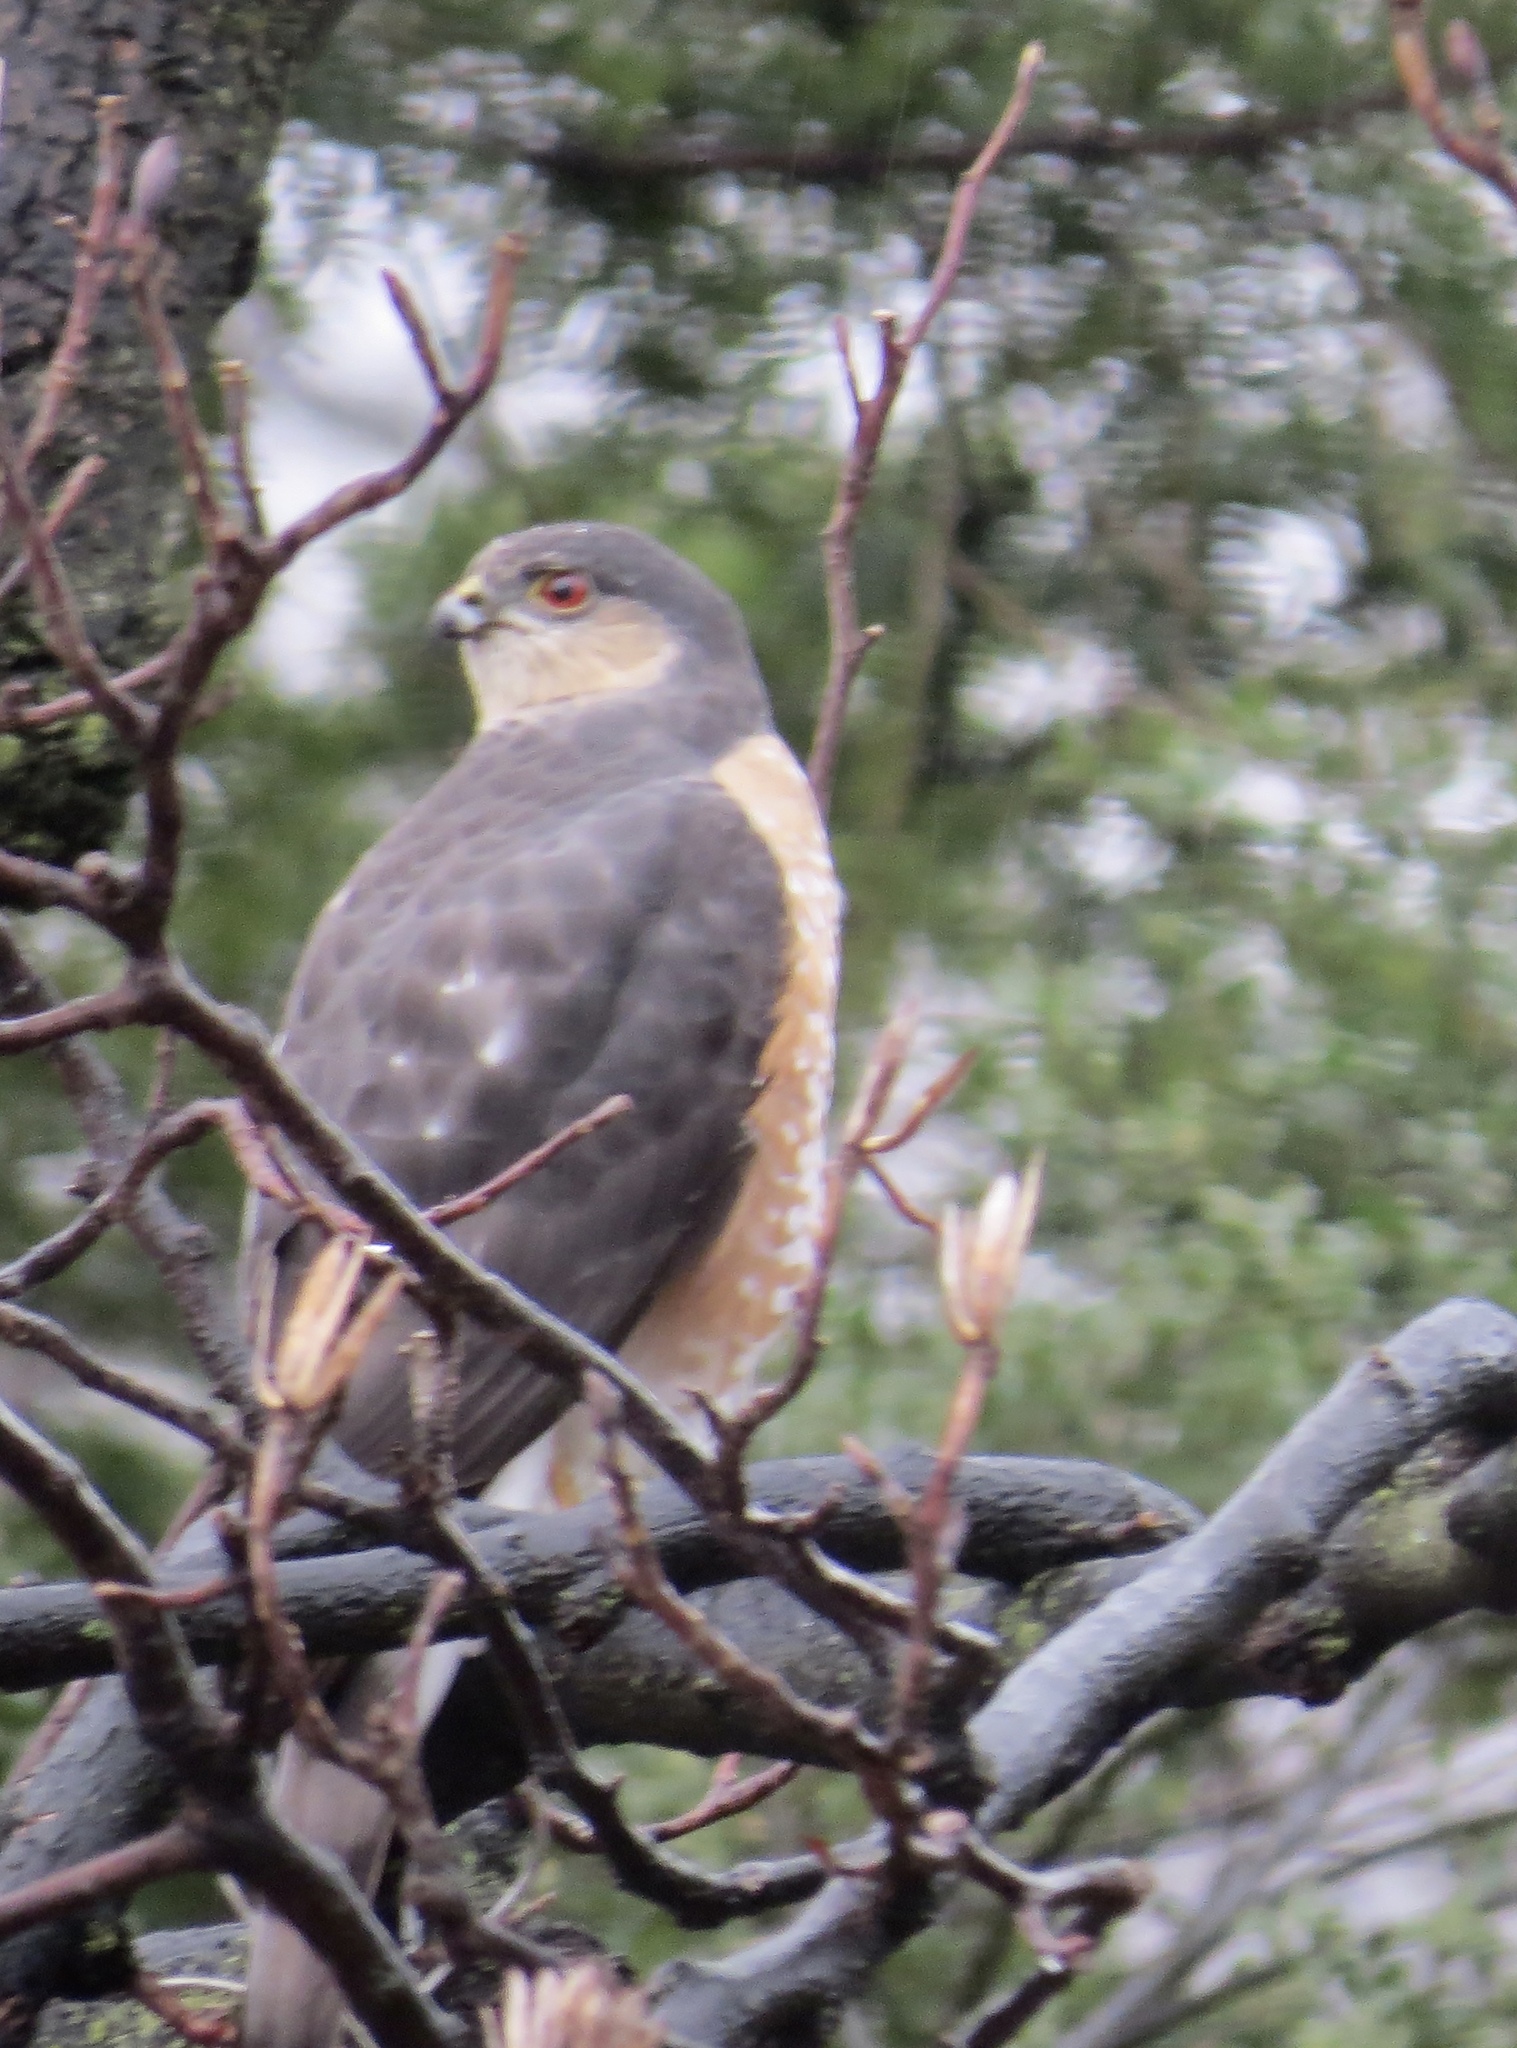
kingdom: Animalia
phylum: Chordata
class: Aves
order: Accipitriformes
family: Accipitridae
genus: Accipiter
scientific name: Accipiter striatus
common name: Sharp-shinned hawk
